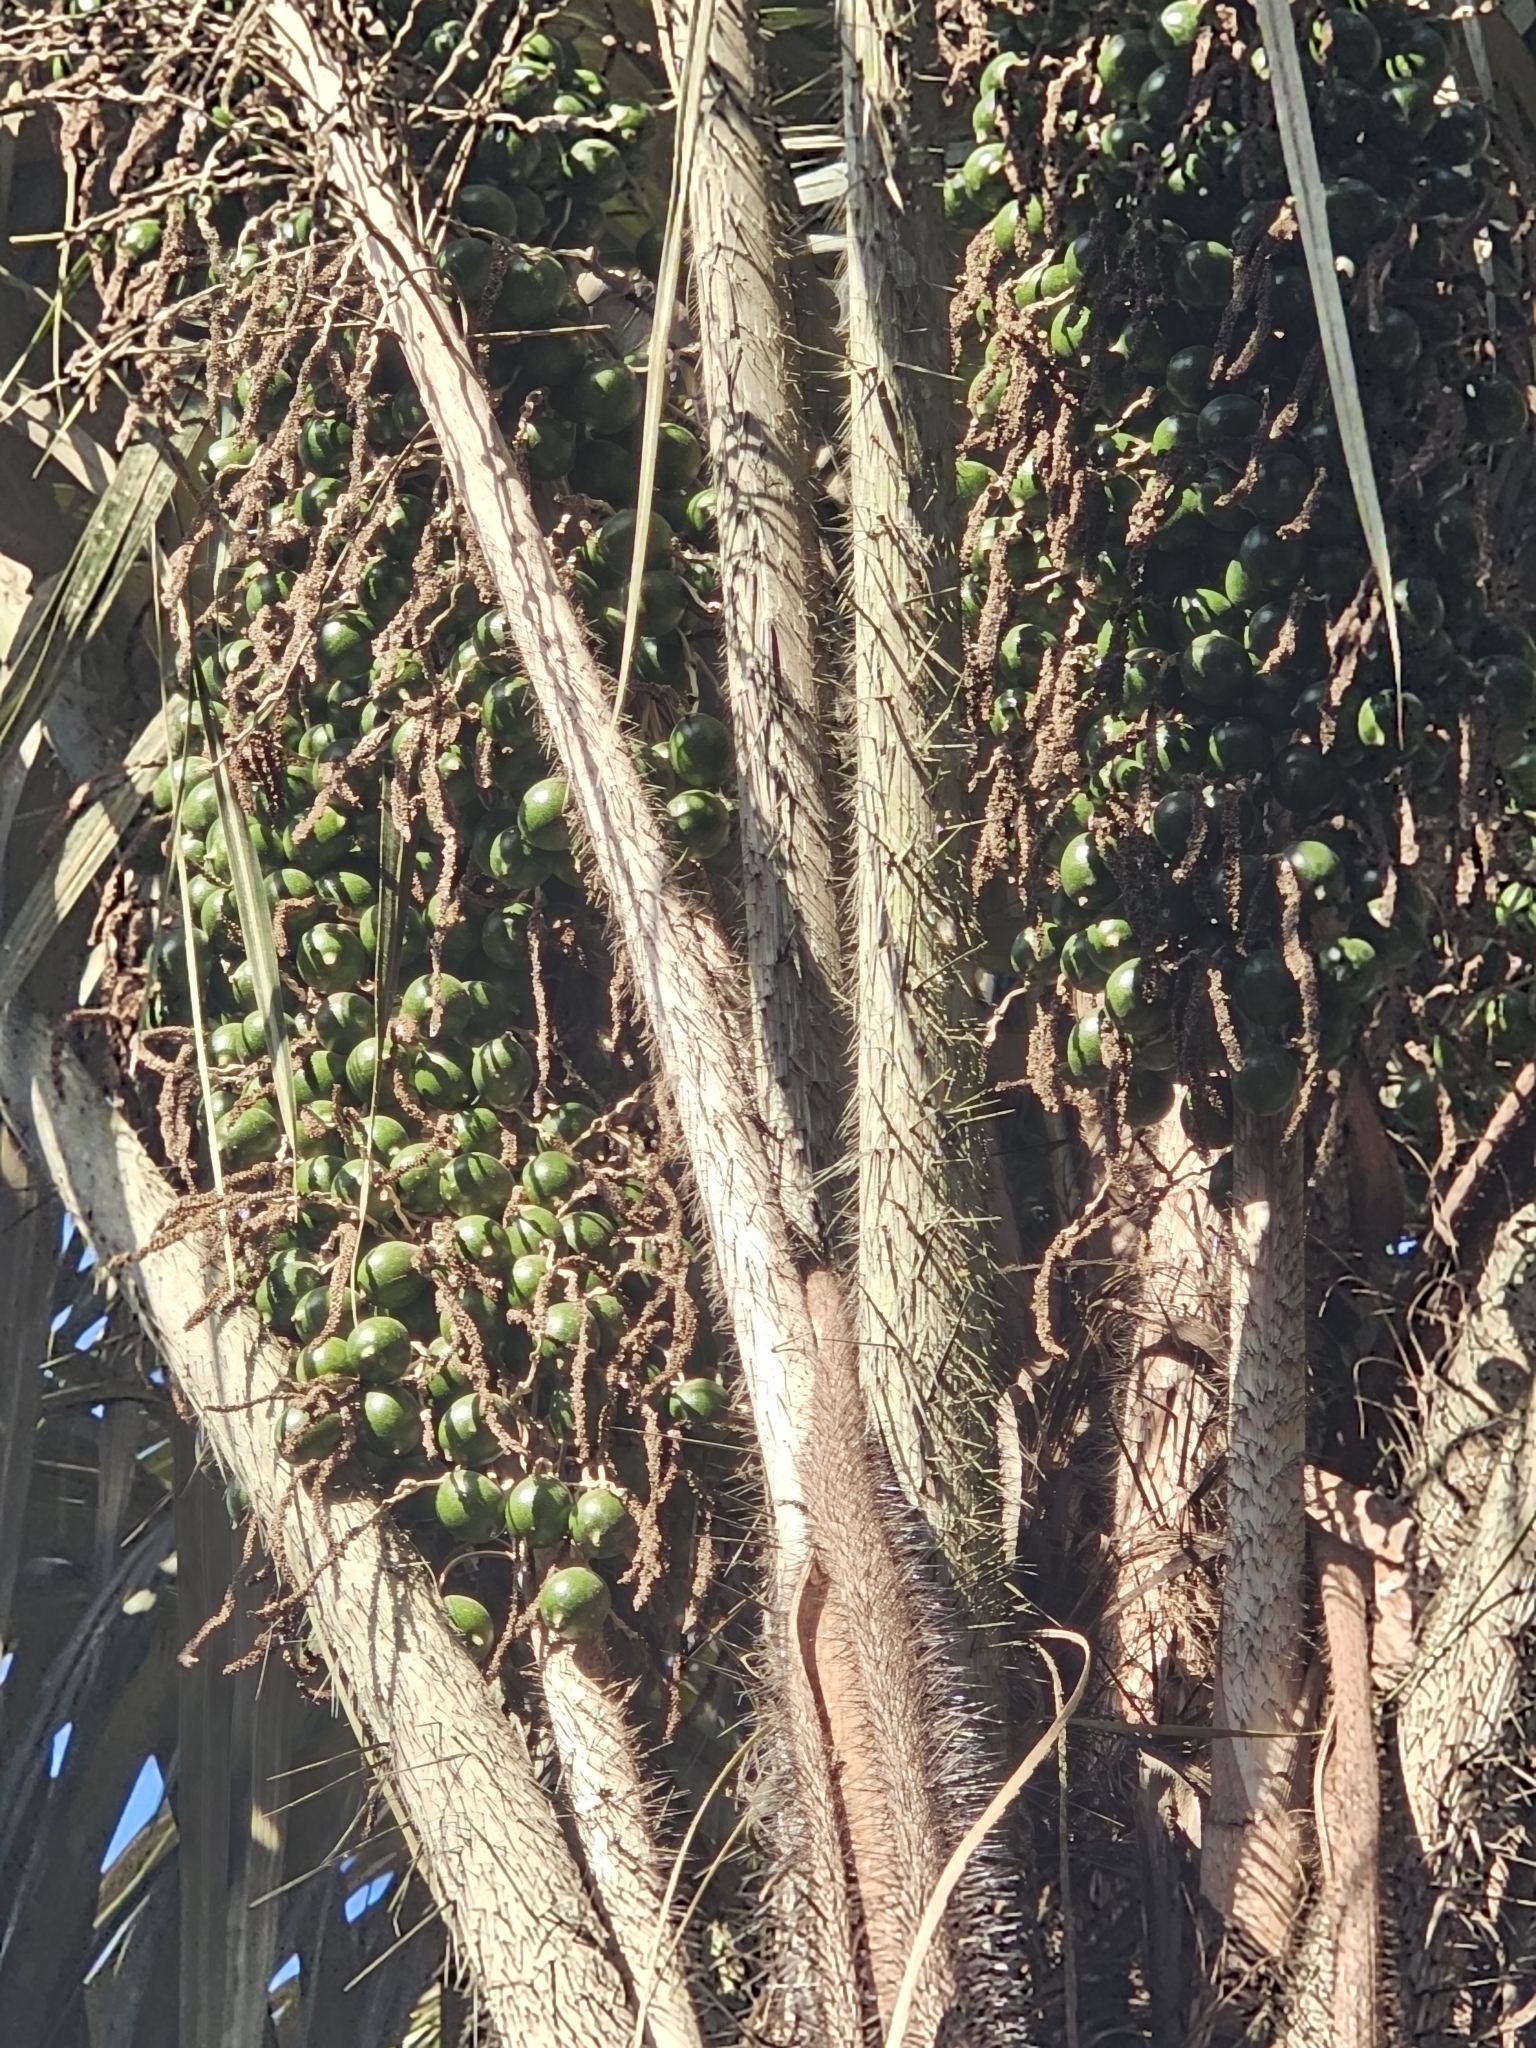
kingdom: Plantae
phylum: Tracheophyta
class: Liliopsida
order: Arecales
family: Arecaceae
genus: Astrocaryum
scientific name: Astrocaryum vulgare
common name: Tucum palm
